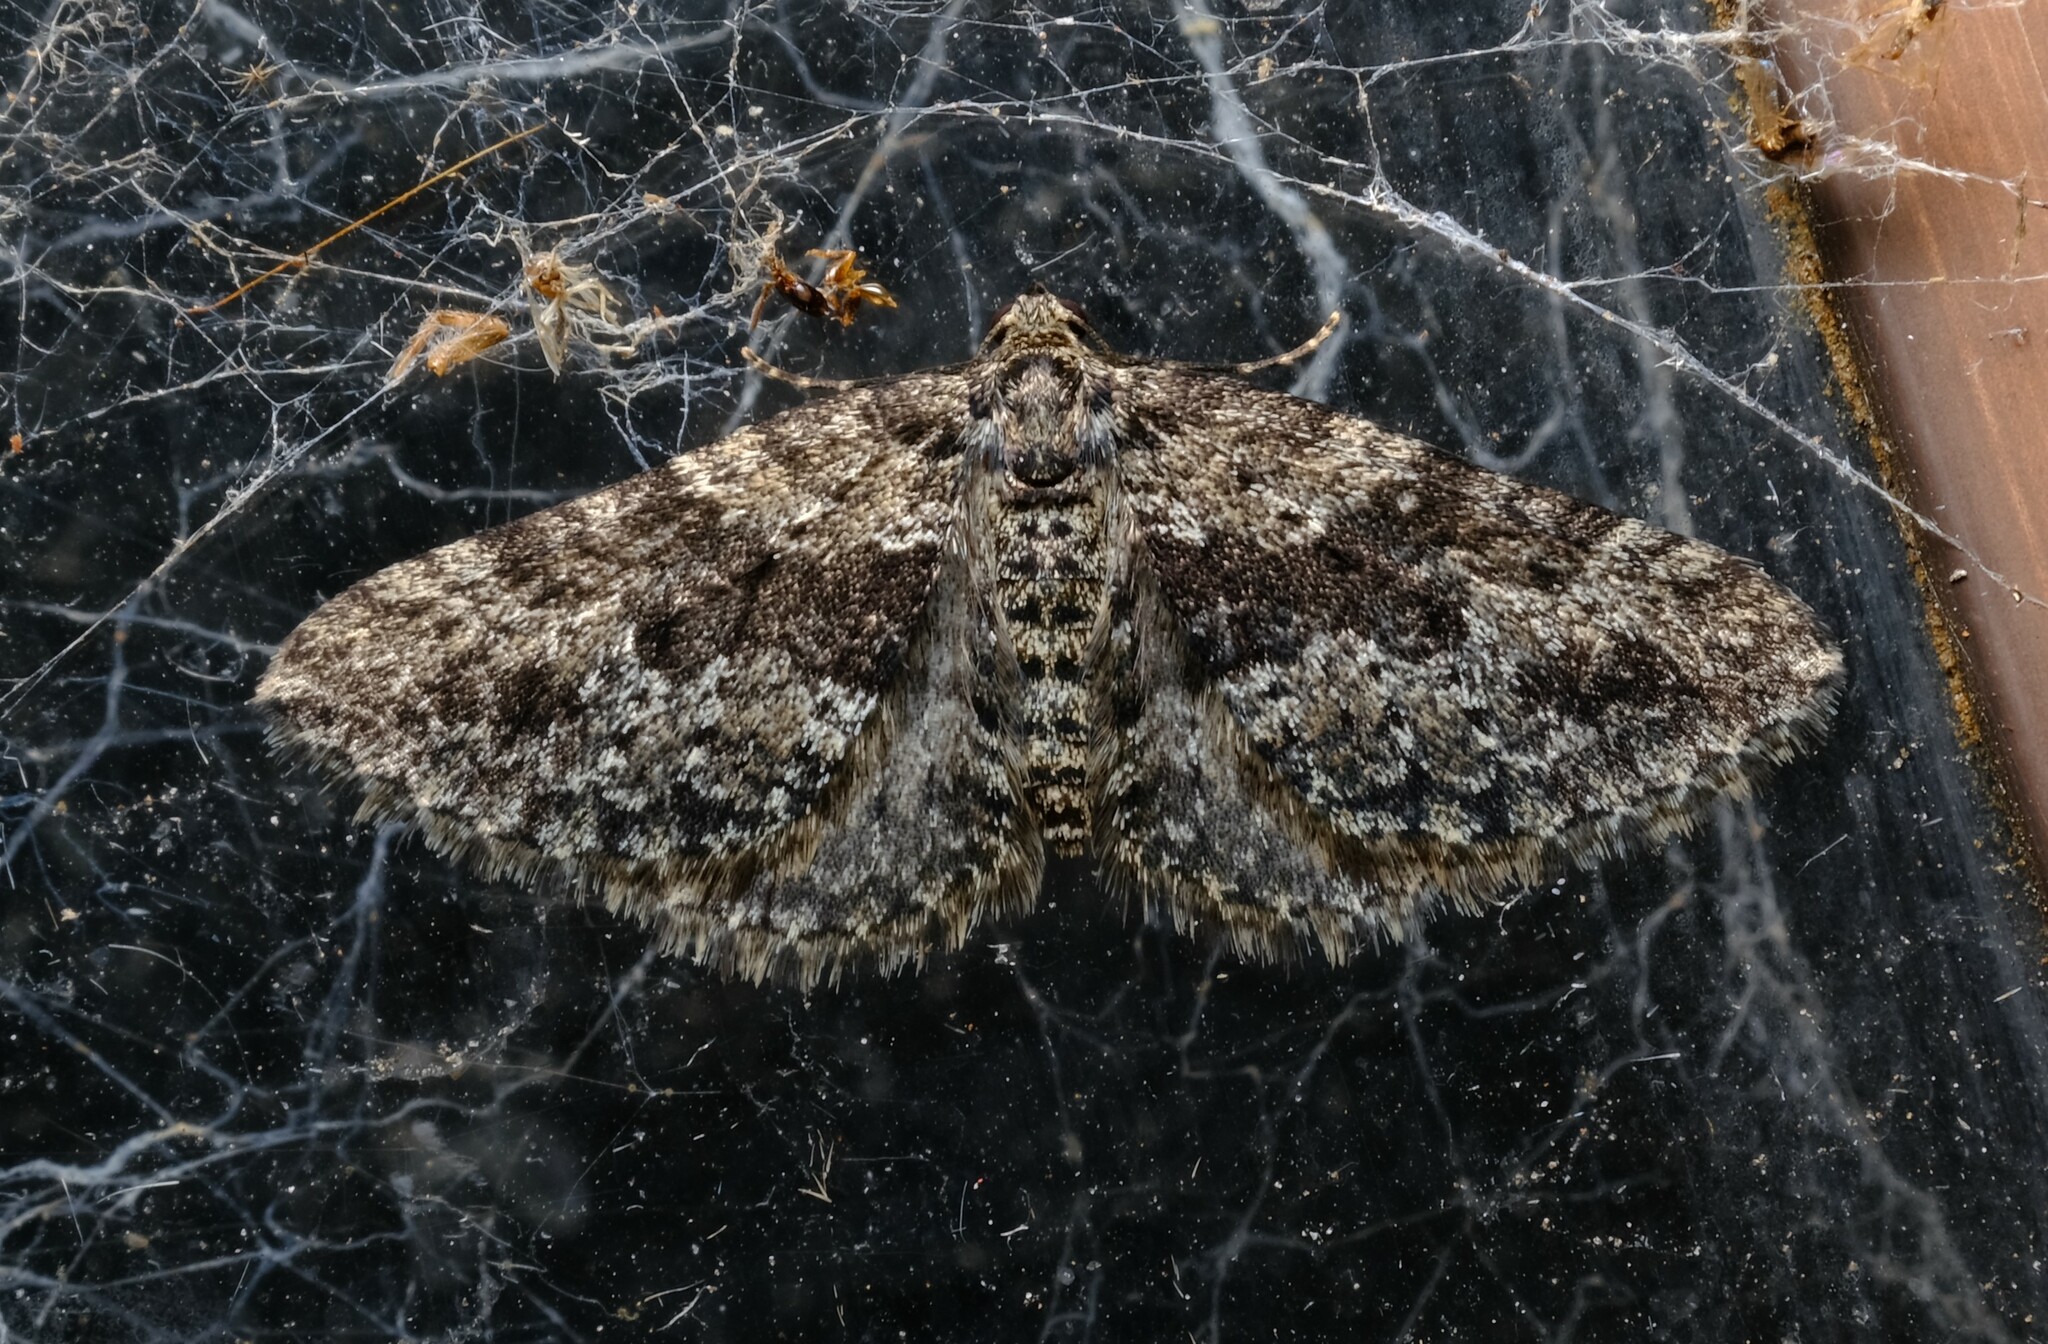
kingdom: Animalia
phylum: Arthropoda
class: Insecta
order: Lepidoptera
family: Geometridae
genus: Aponotoreas
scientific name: Aponotoreas dascia
